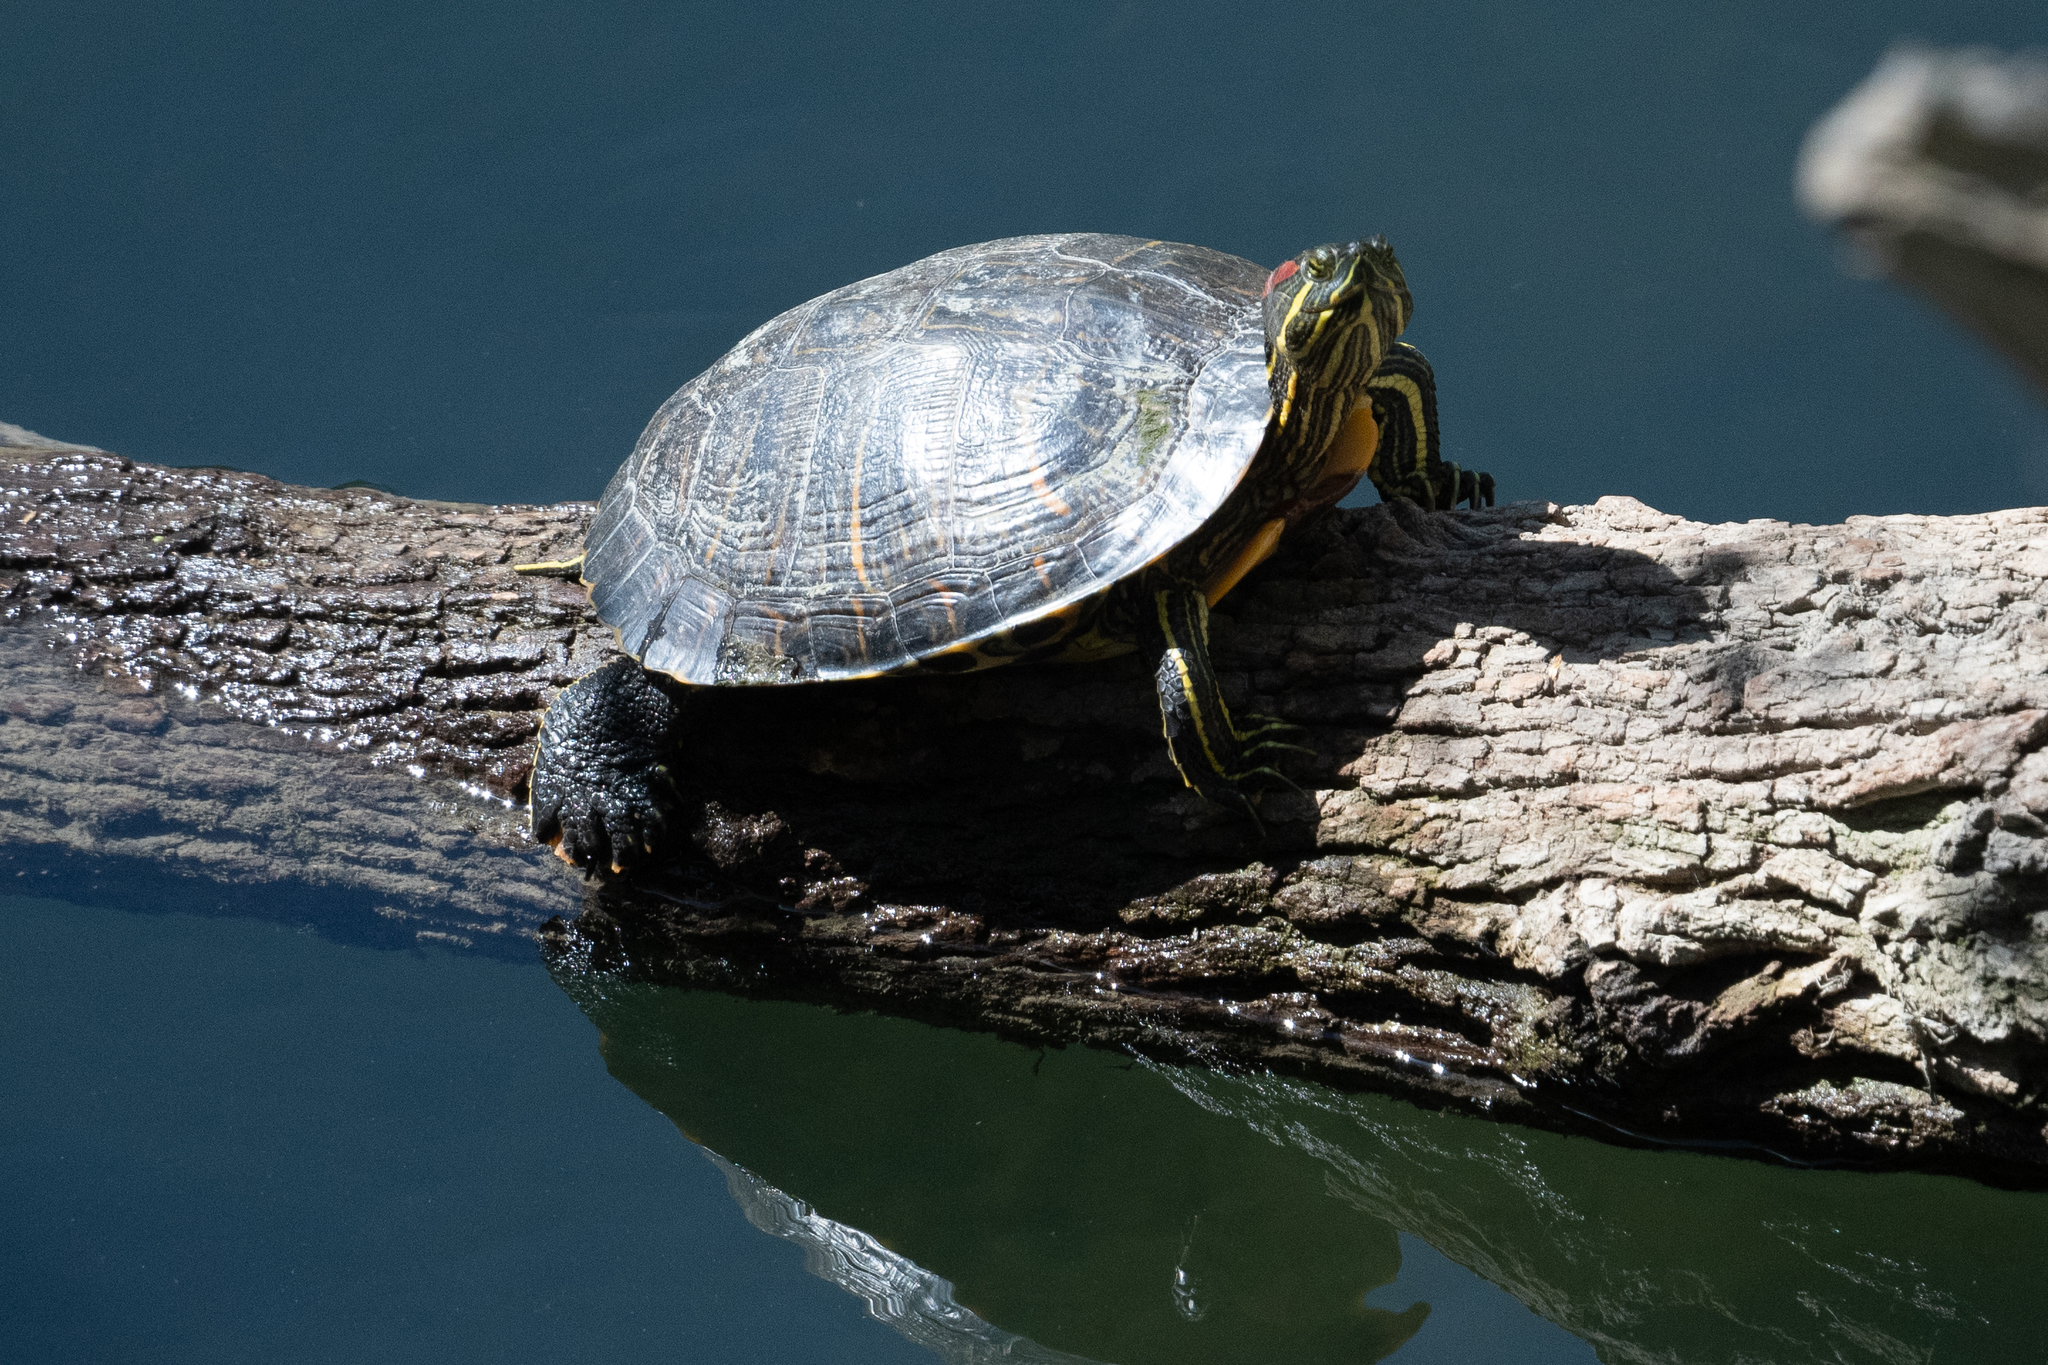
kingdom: Animalia
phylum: Chordata
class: Testudines
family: Emydidae
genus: Trachemys
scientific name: Trachemys scripta
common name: Slider
